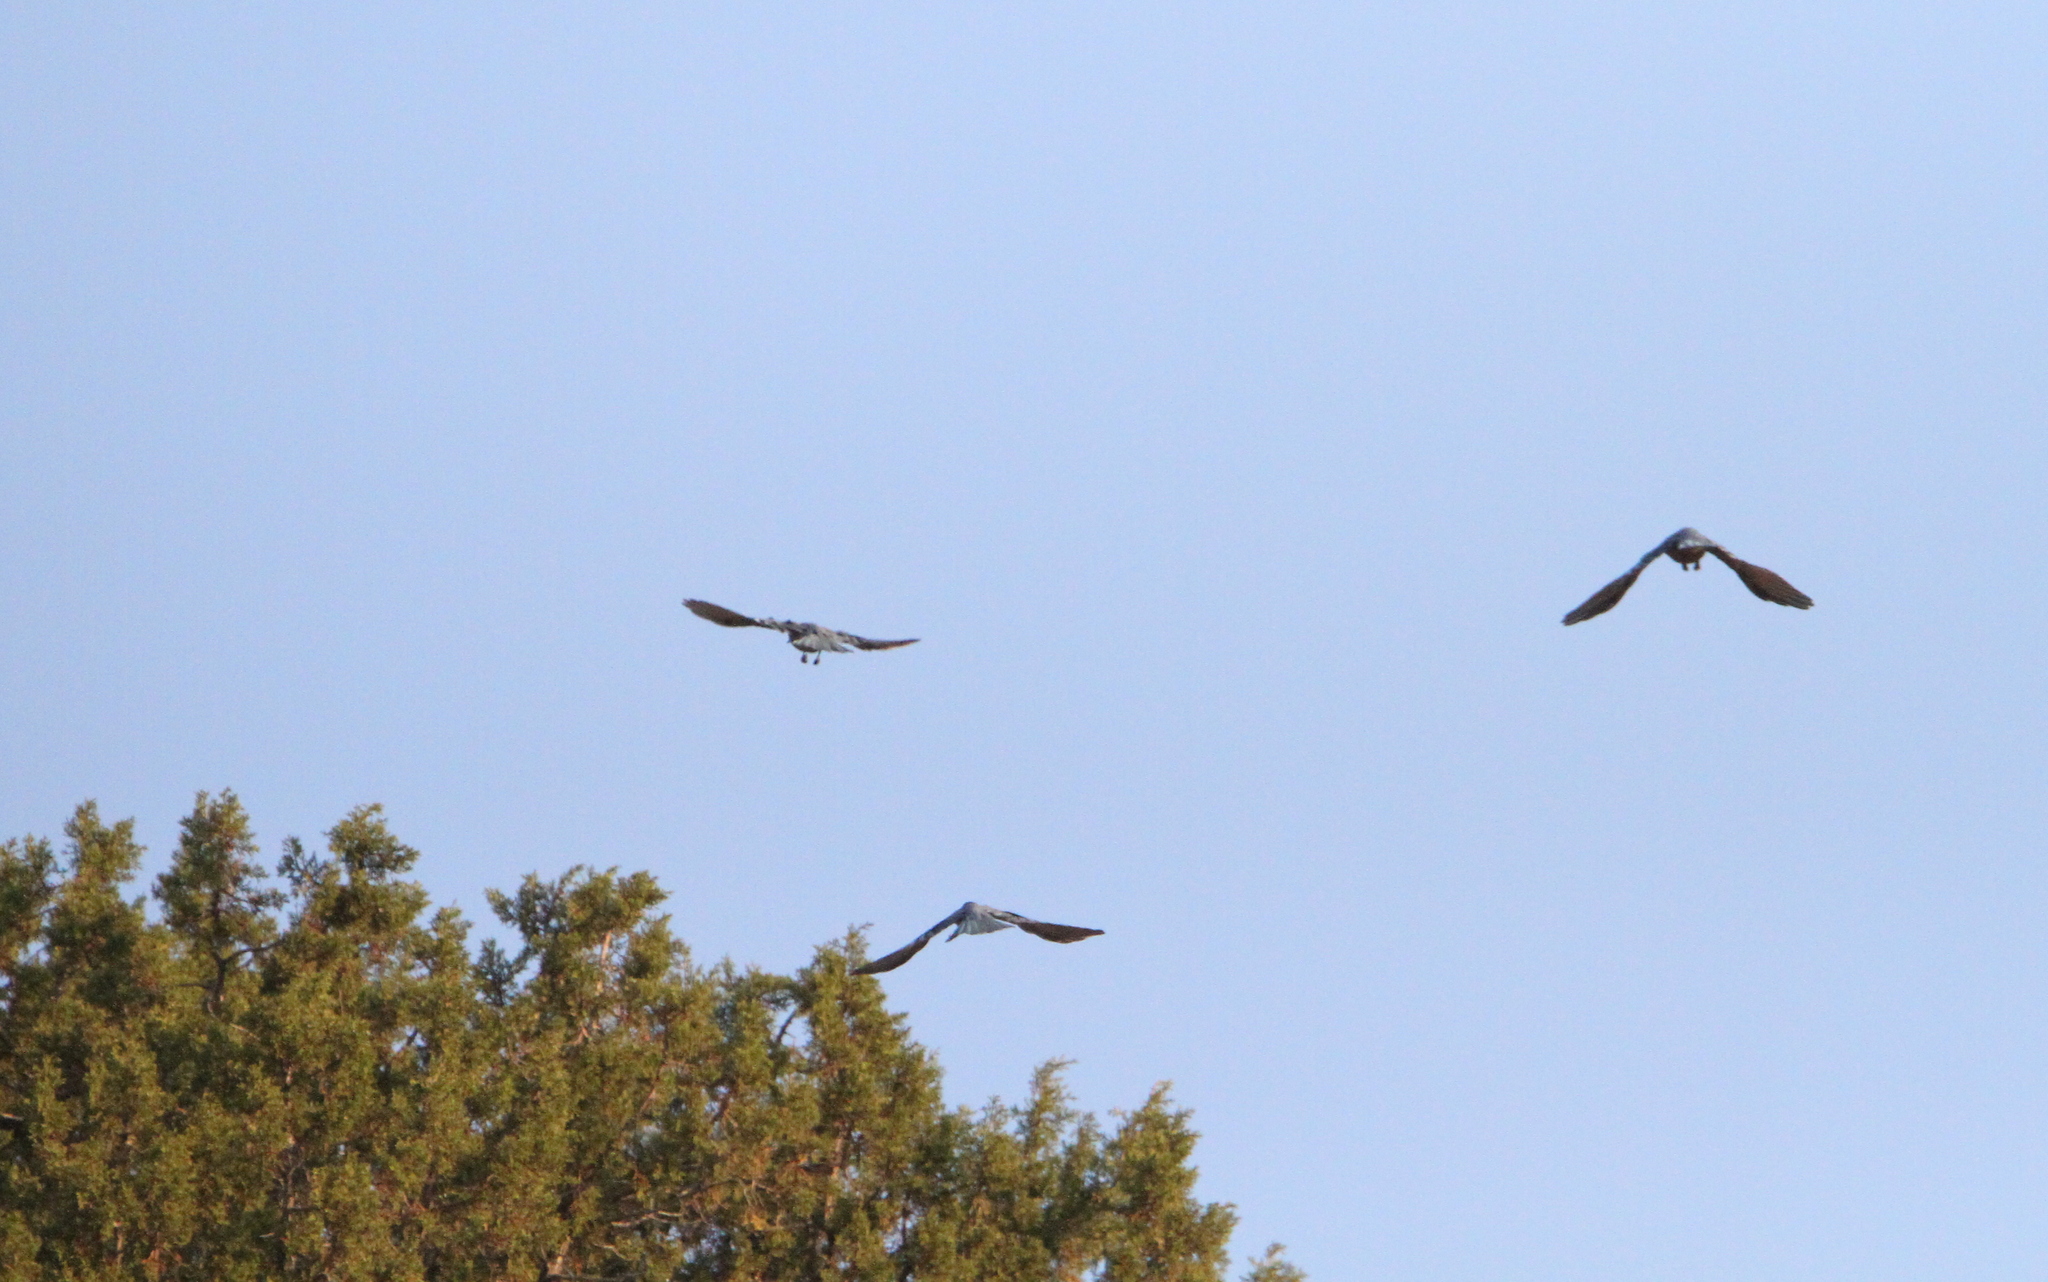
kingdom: Animalia
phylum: Chordata
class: Aves
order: Passeriformes
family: Corvidae
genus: Gymnorhinus
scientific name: Gymnorhinus cyanocephalus
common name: Pinyon jay
